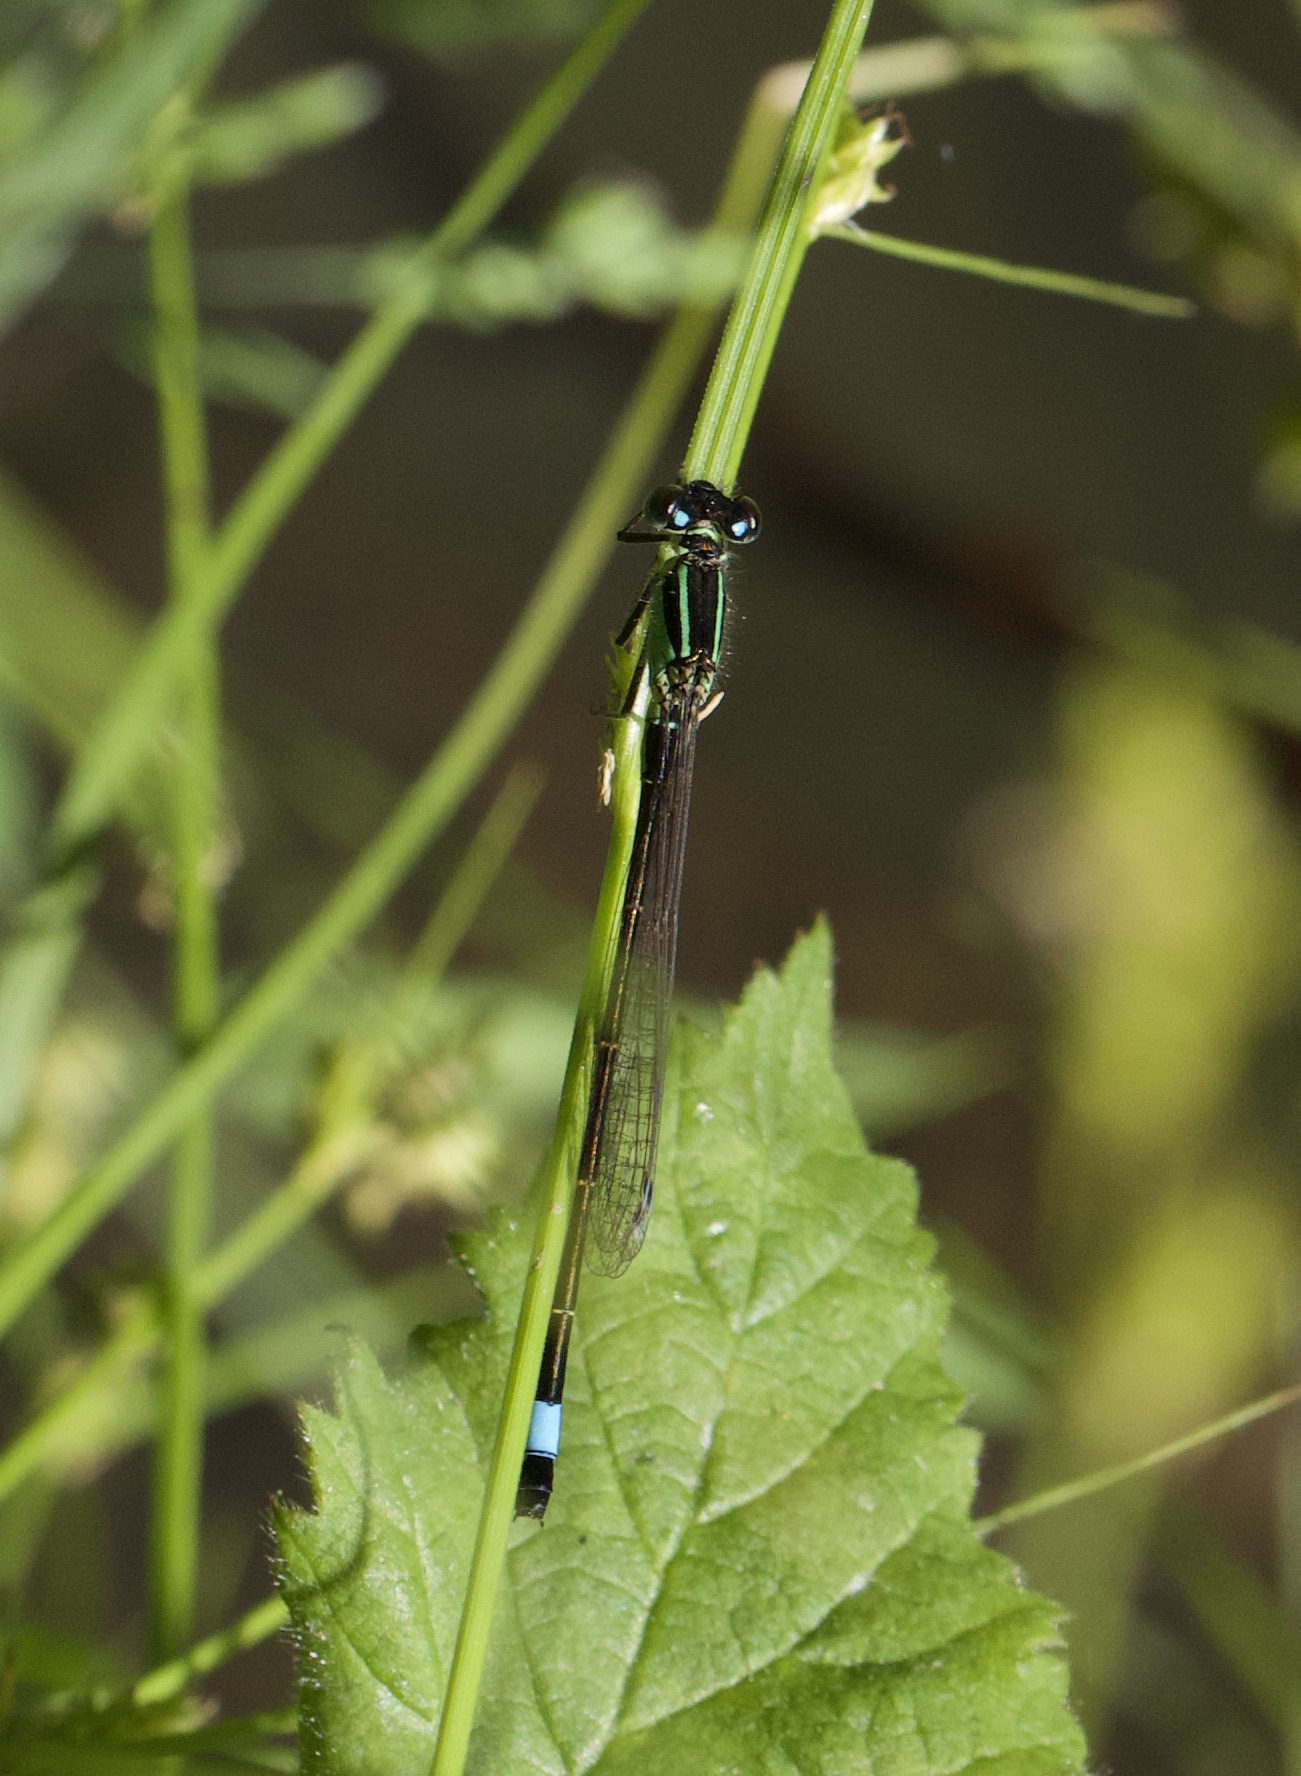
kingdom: Animalia
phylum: Arthropoda
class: Insecta
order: Odonata
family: Coenagrionidae
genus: Ischnura
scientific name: Ischnura elegans
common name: Blue-tailed damselfly
